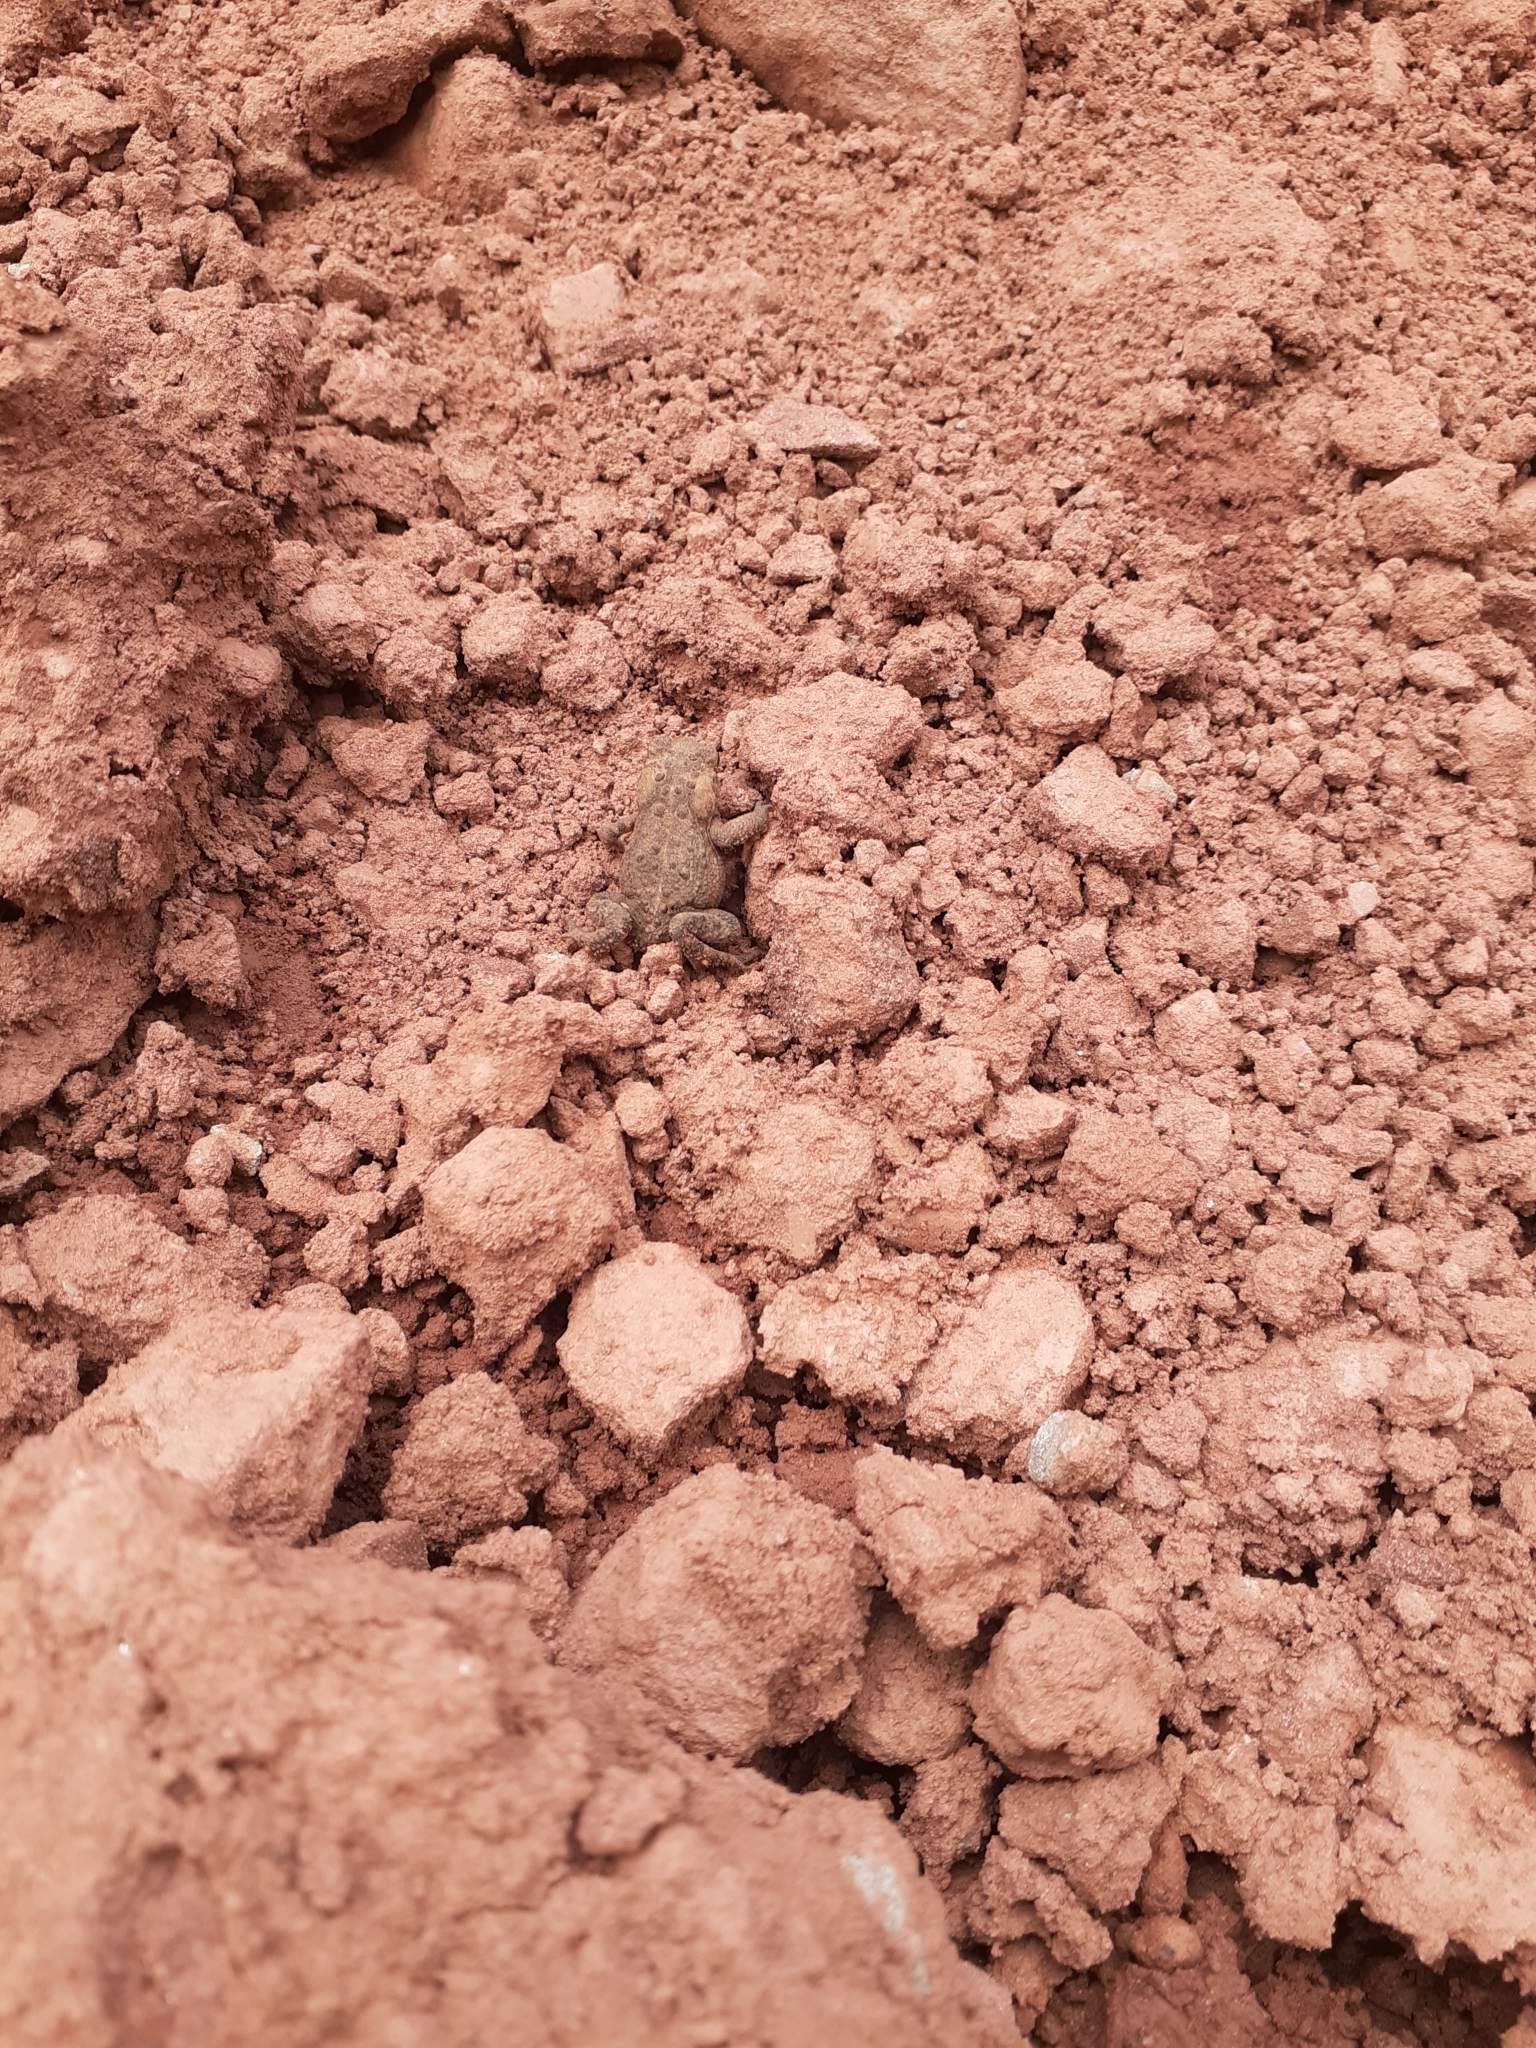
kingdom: Animalia
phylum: Chordata
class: Amphibia
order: Anura
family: Bufonidae
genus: Anaxyrus
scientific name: Anaxyrus americanus
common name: American toad
